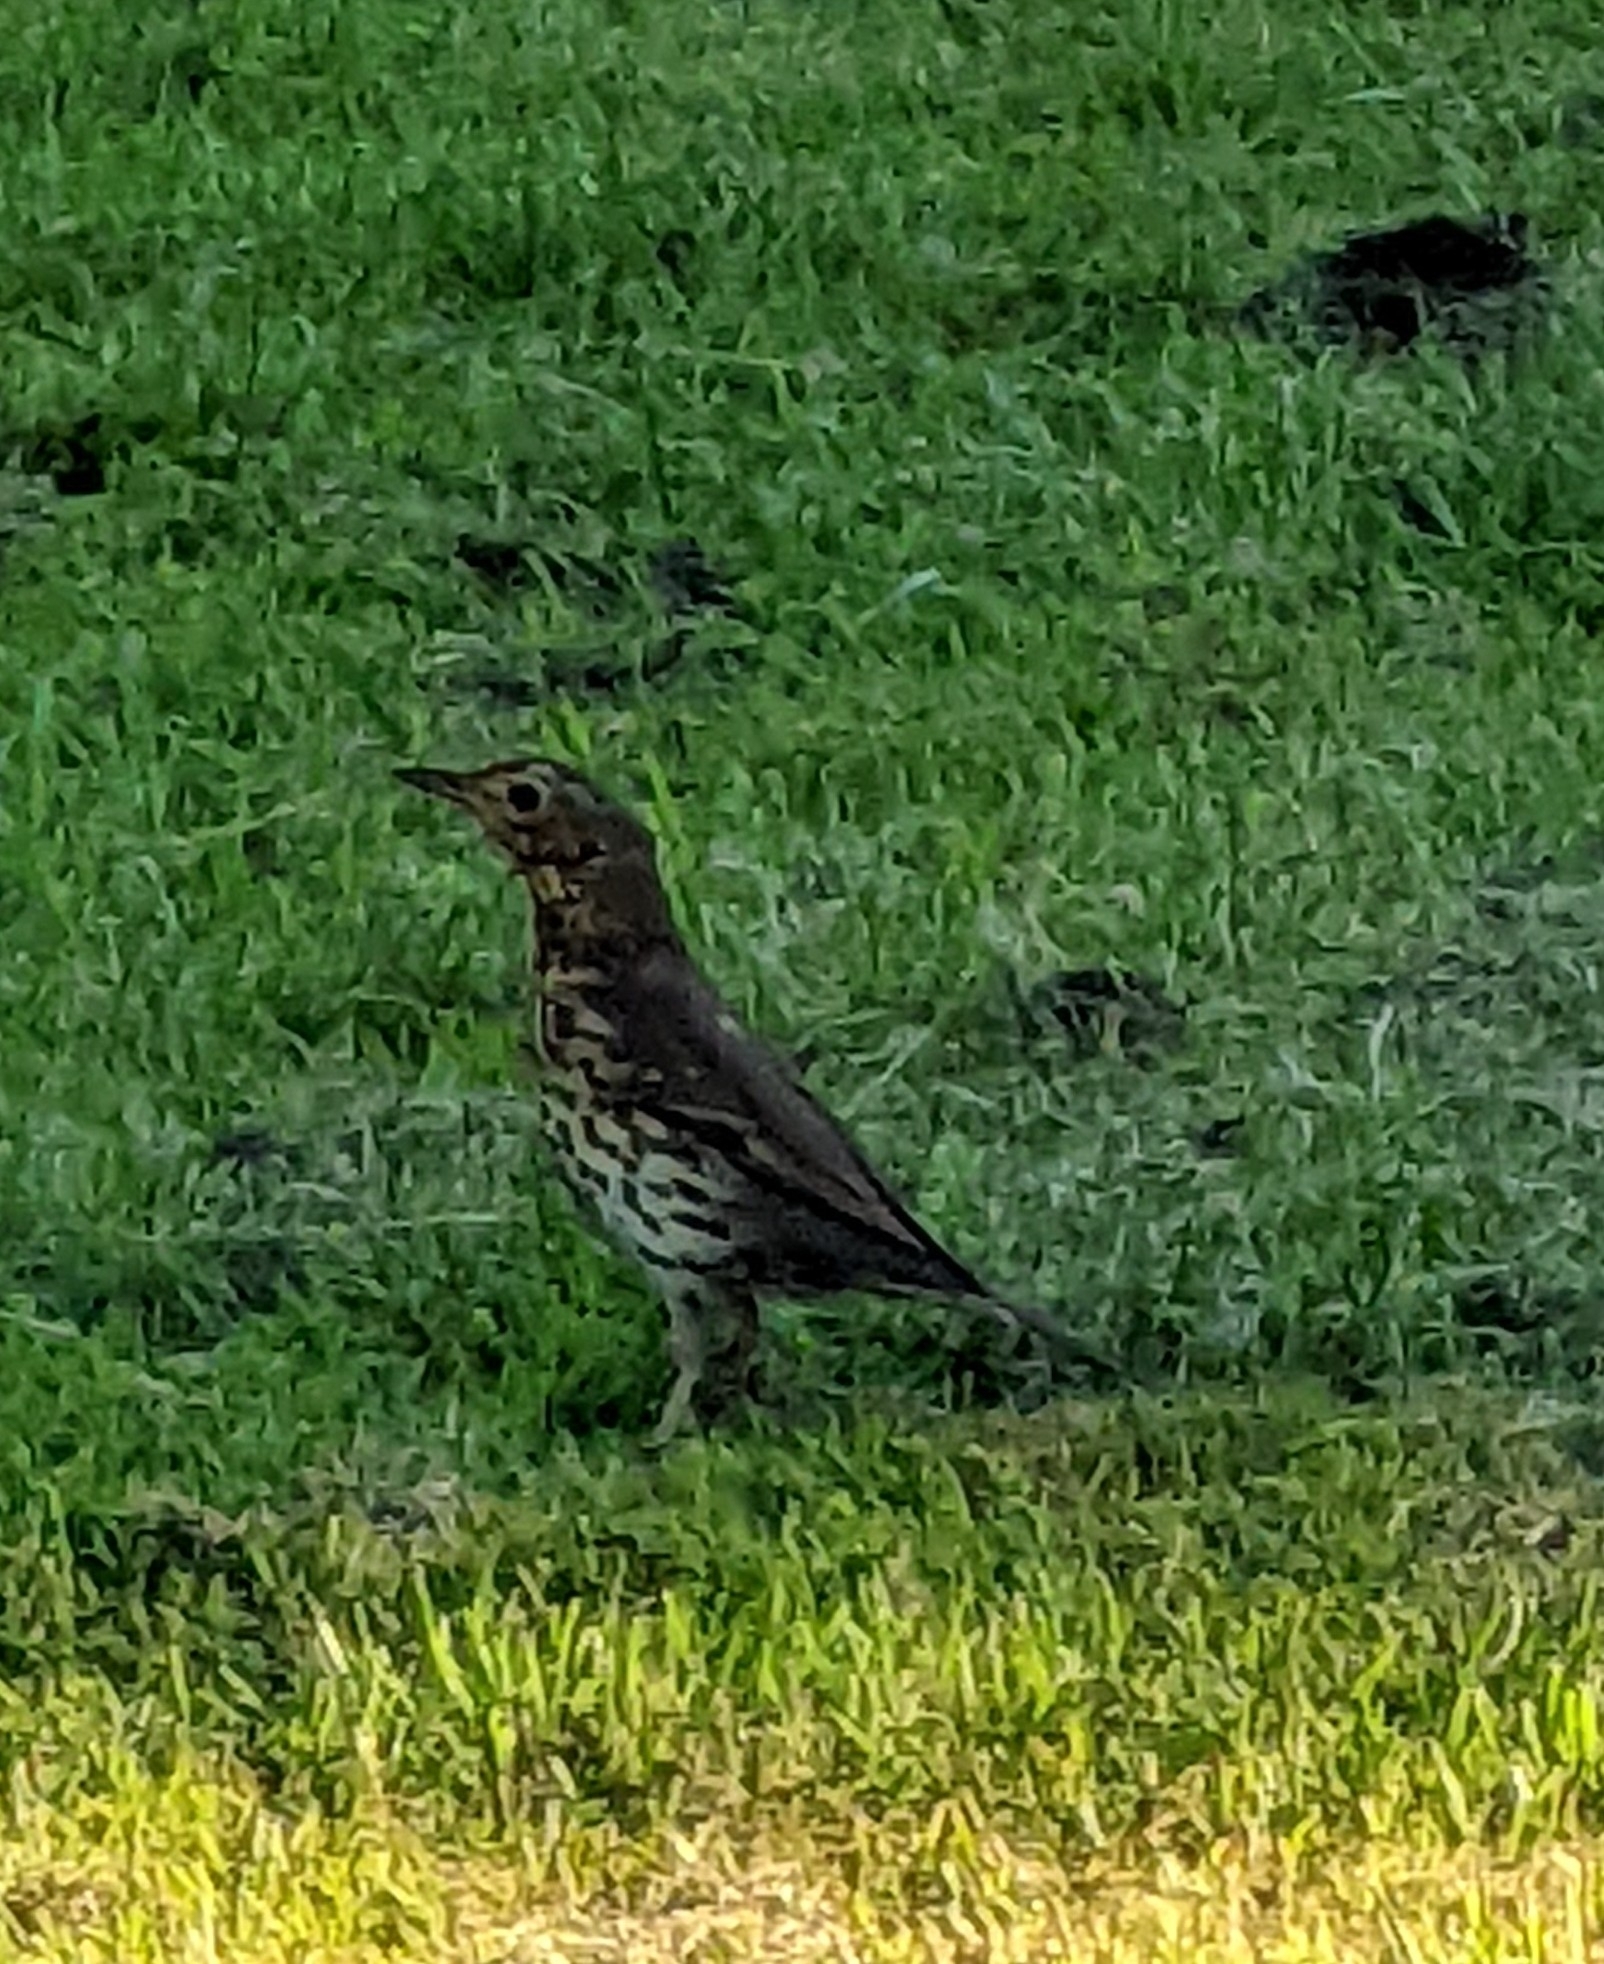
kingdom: Animalia
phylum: Chordata
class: Aves
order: Passeriformes
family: Turdidae
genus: Turdus
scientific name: Turdus philomelos
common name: Song thrush
